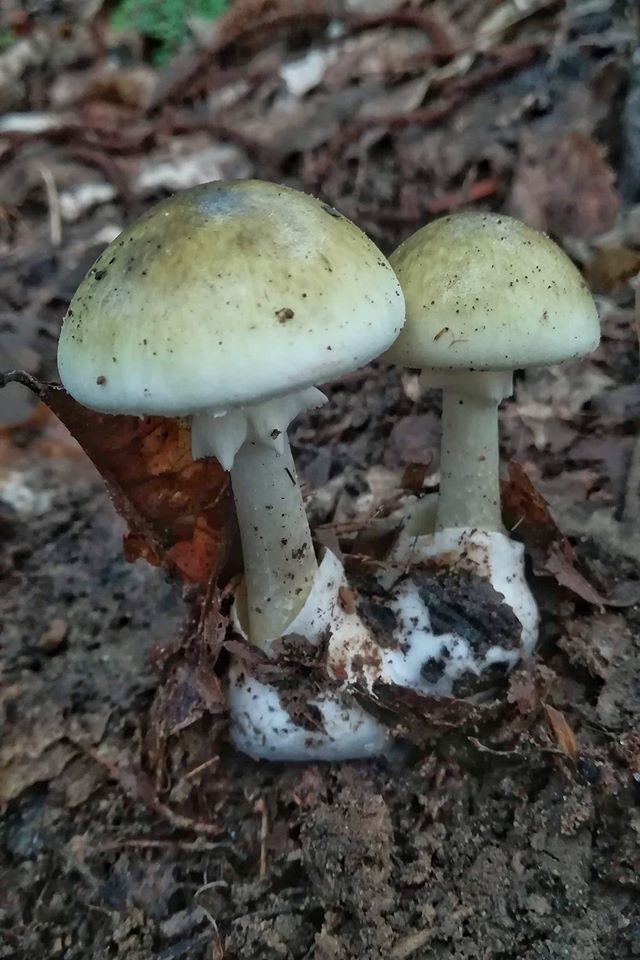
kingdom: Fungi
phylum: Basidiomycota
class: Agaricomycetes
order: Agaricales
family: Amanitaceae
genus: Amanita
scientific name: Amanita phalloides
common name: Death cap
